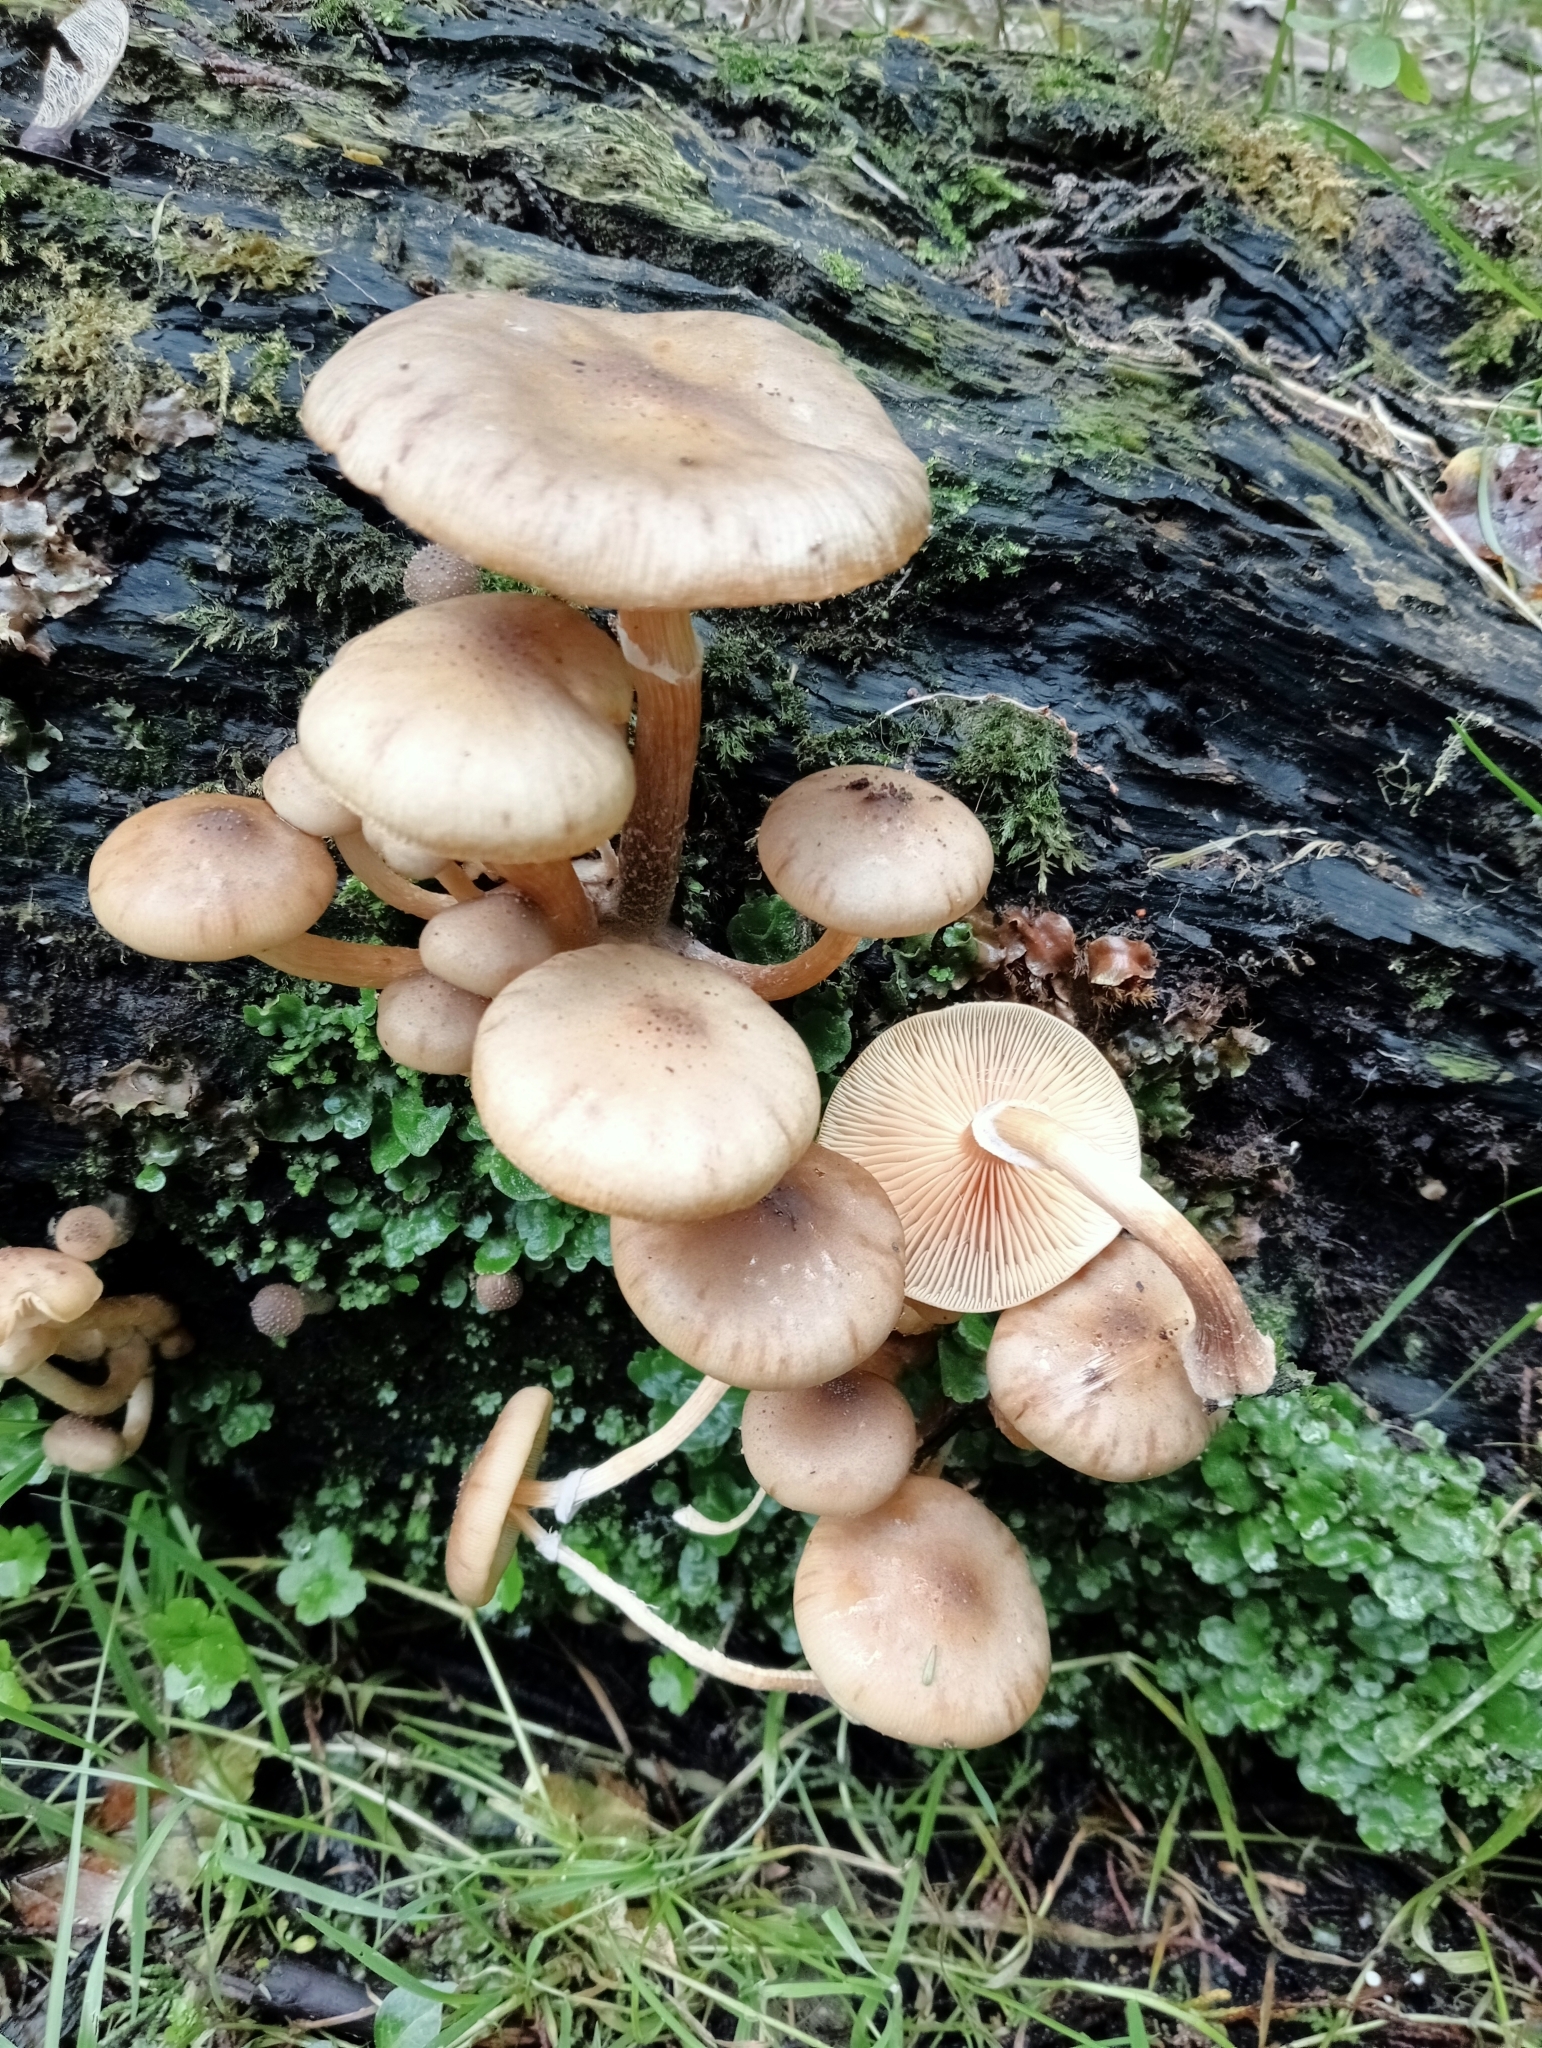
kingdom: Fungi
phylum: Basidiomycota
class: Agaricomycetes
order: Agaricales
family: Physalacriaceae
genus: Armillaria
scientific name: Armillaria novae-zelandiae
